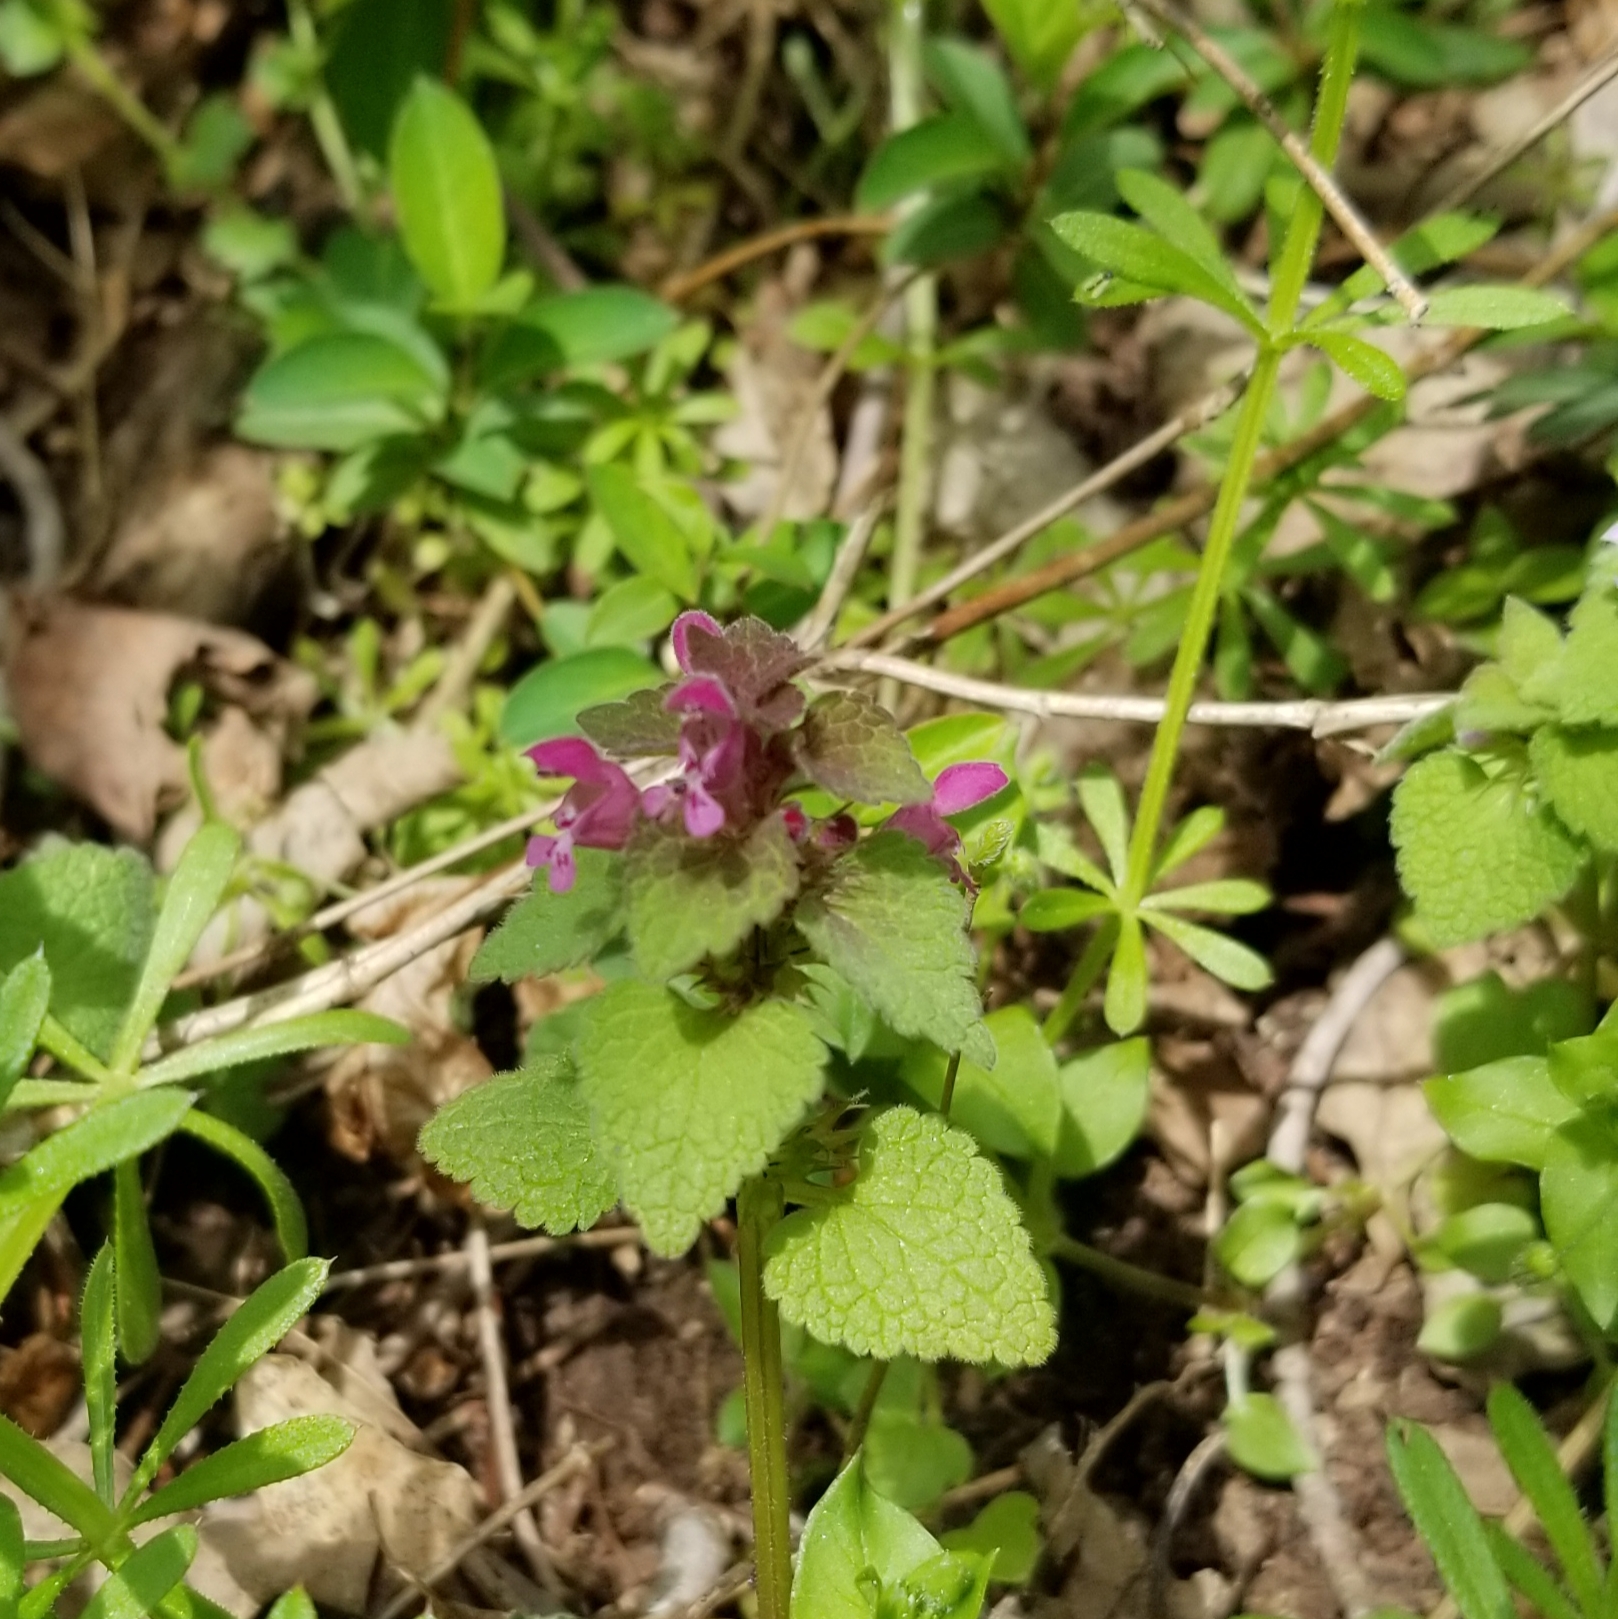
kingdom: Plantae
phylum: Tracheophyta
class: Magnoliopsida
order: Lamiales
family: Lamiaceae
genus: Lamium
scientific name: Lamium purpureum
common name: Red dead-nettle
